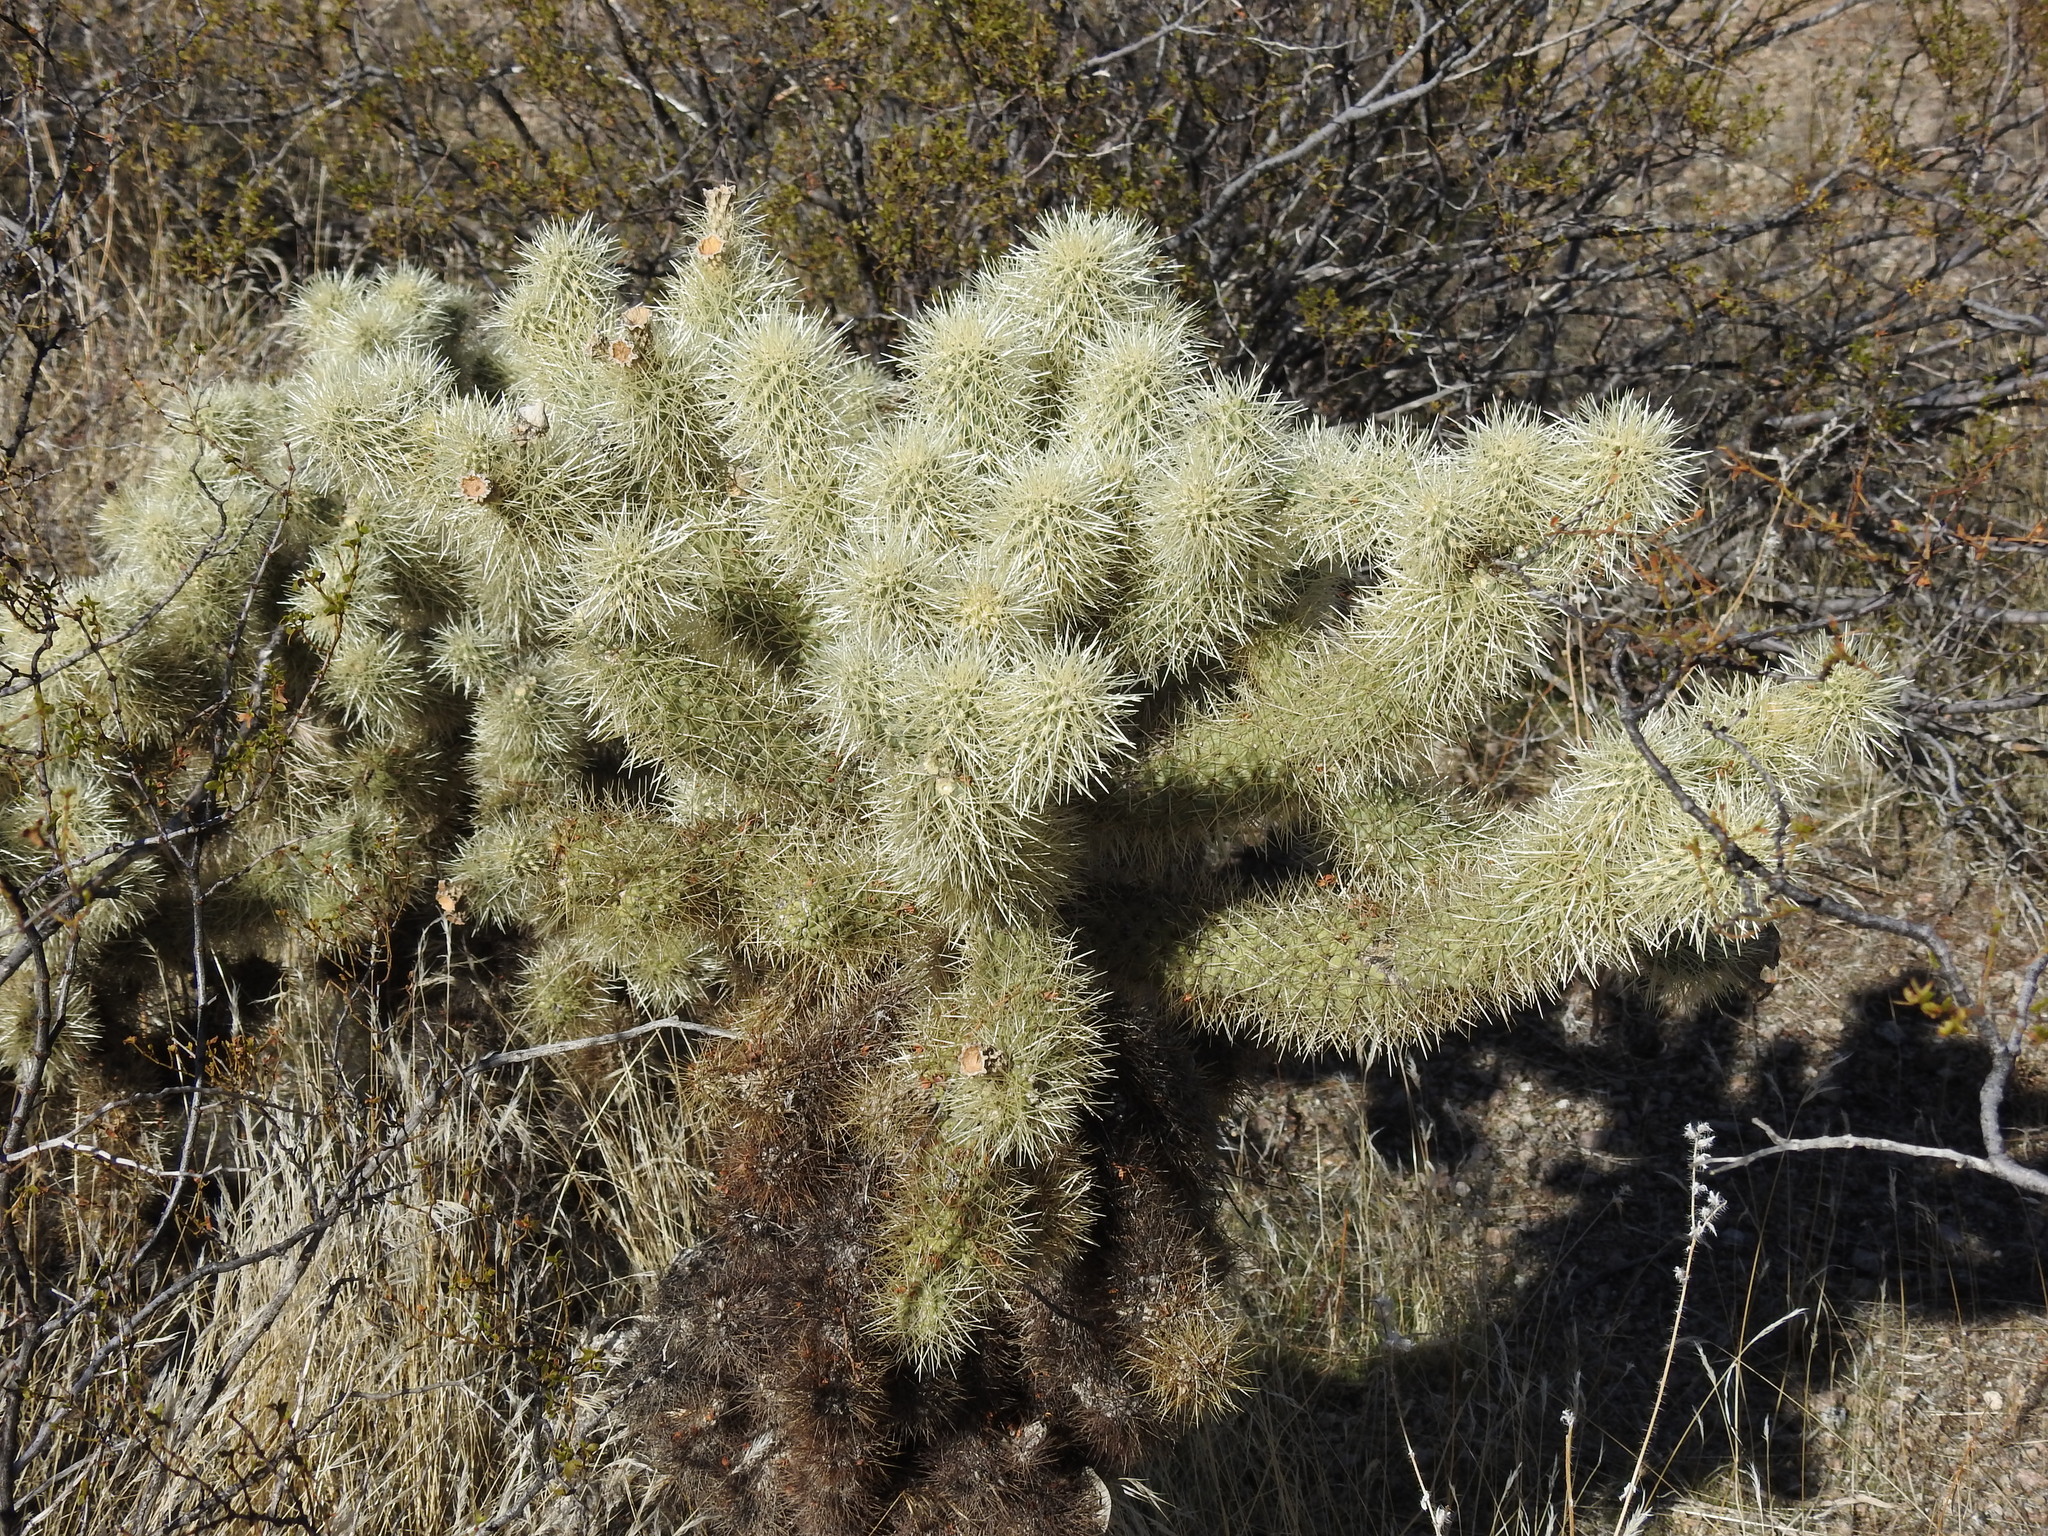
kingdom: Plantae
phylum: Tracheophyta
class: Magnoliopsida
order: Caryophyllales
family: Cactaceae
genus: Cylindropuntia
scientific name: Cylindropuntia fosbergii
